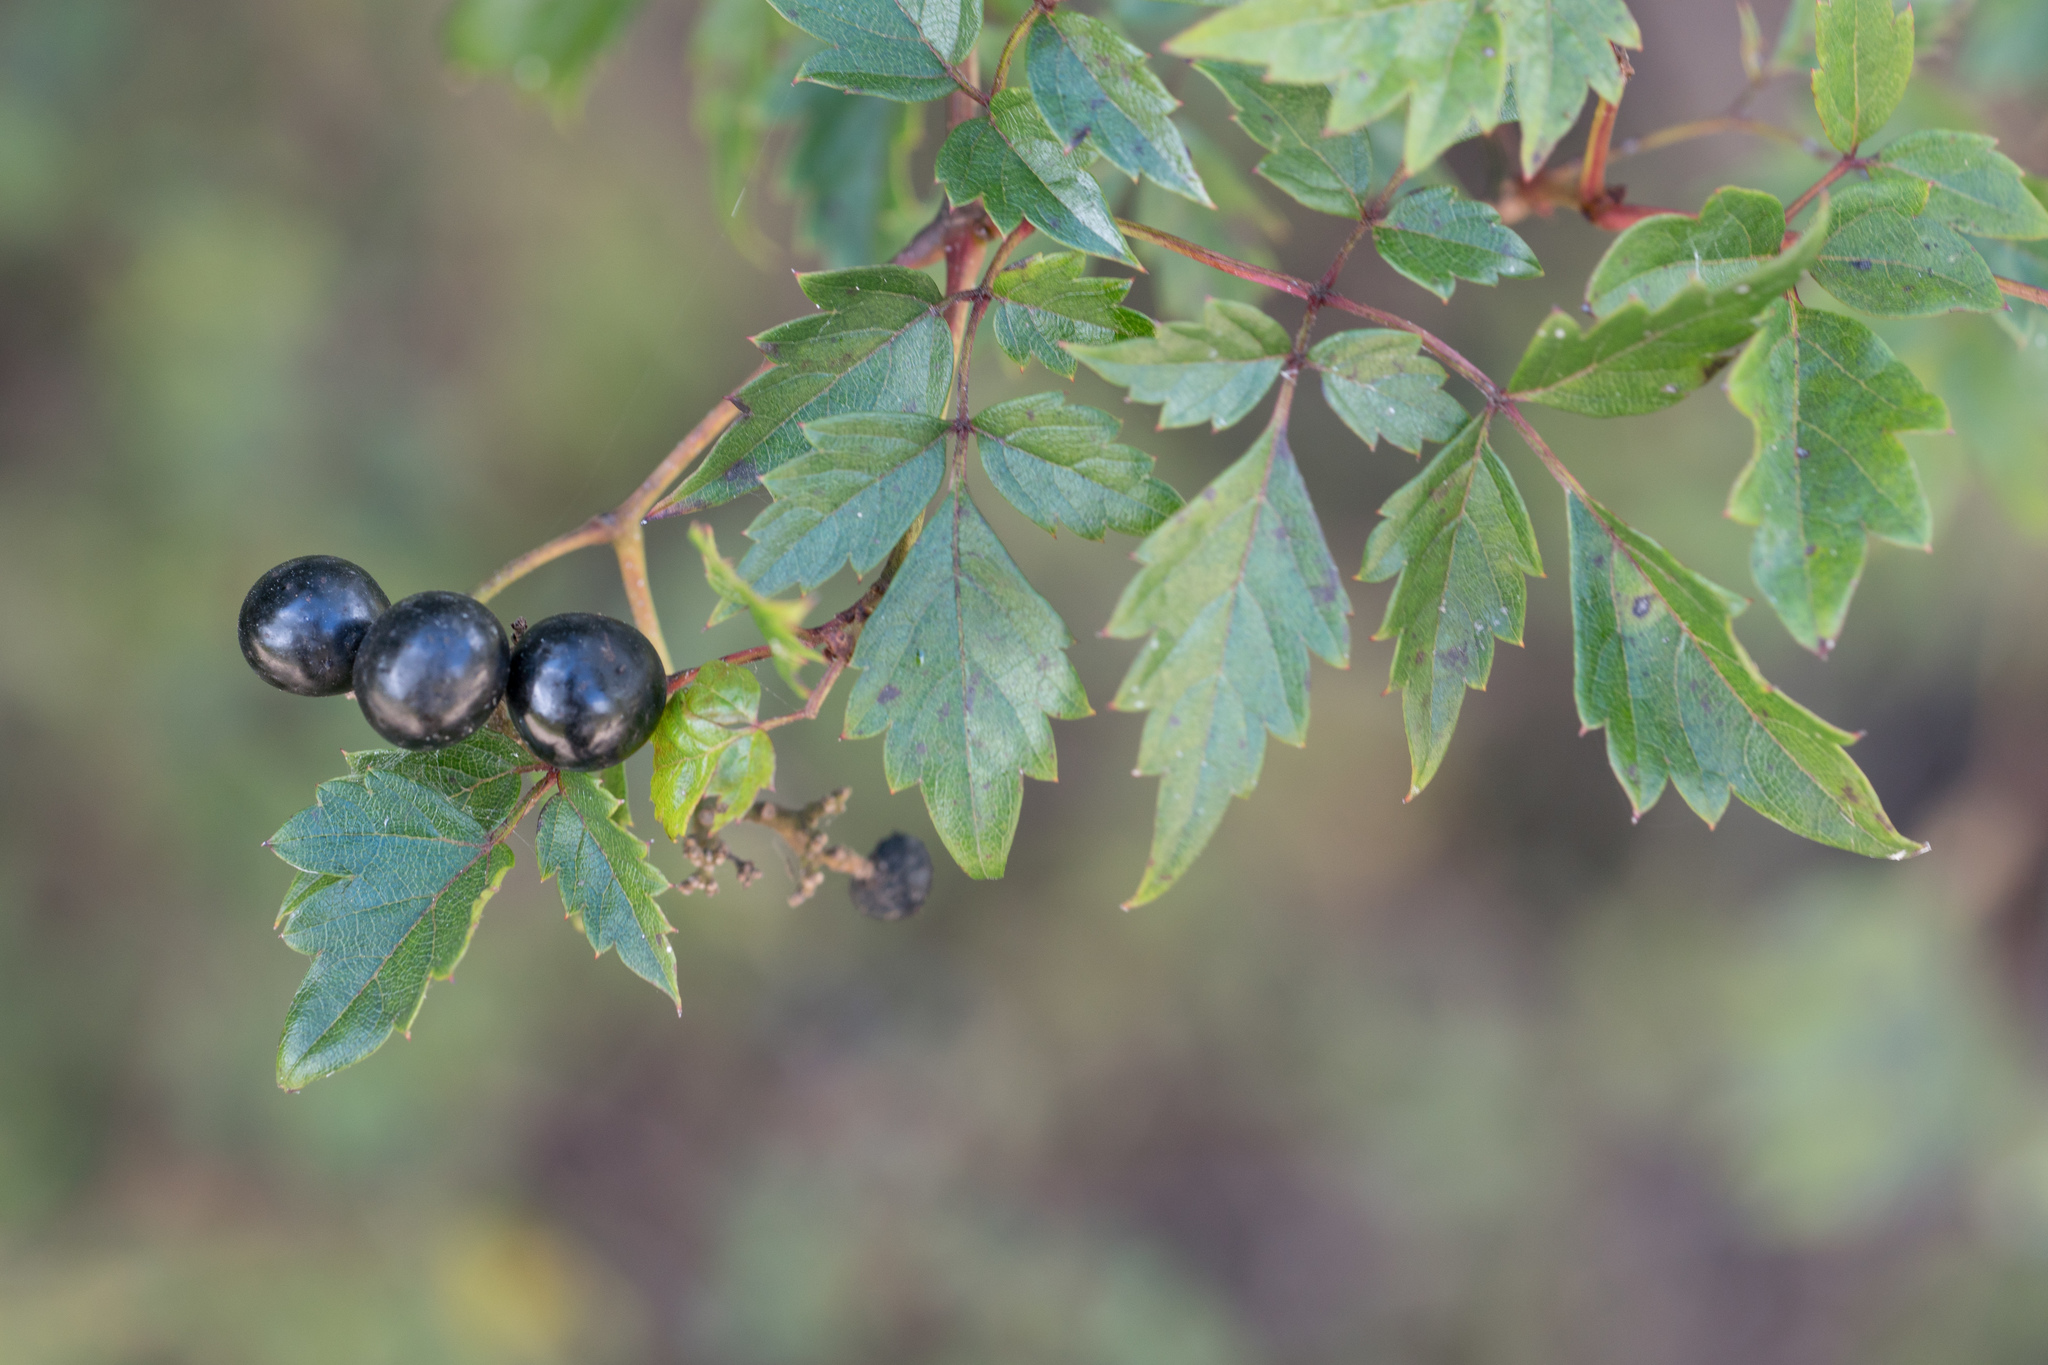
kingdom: Plantae
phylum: Tracheophyta
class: Magnoliopsida
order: Vitales
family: Vitaceae
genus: Nekemias
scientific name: Nekemias arborea
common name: Peppervine
